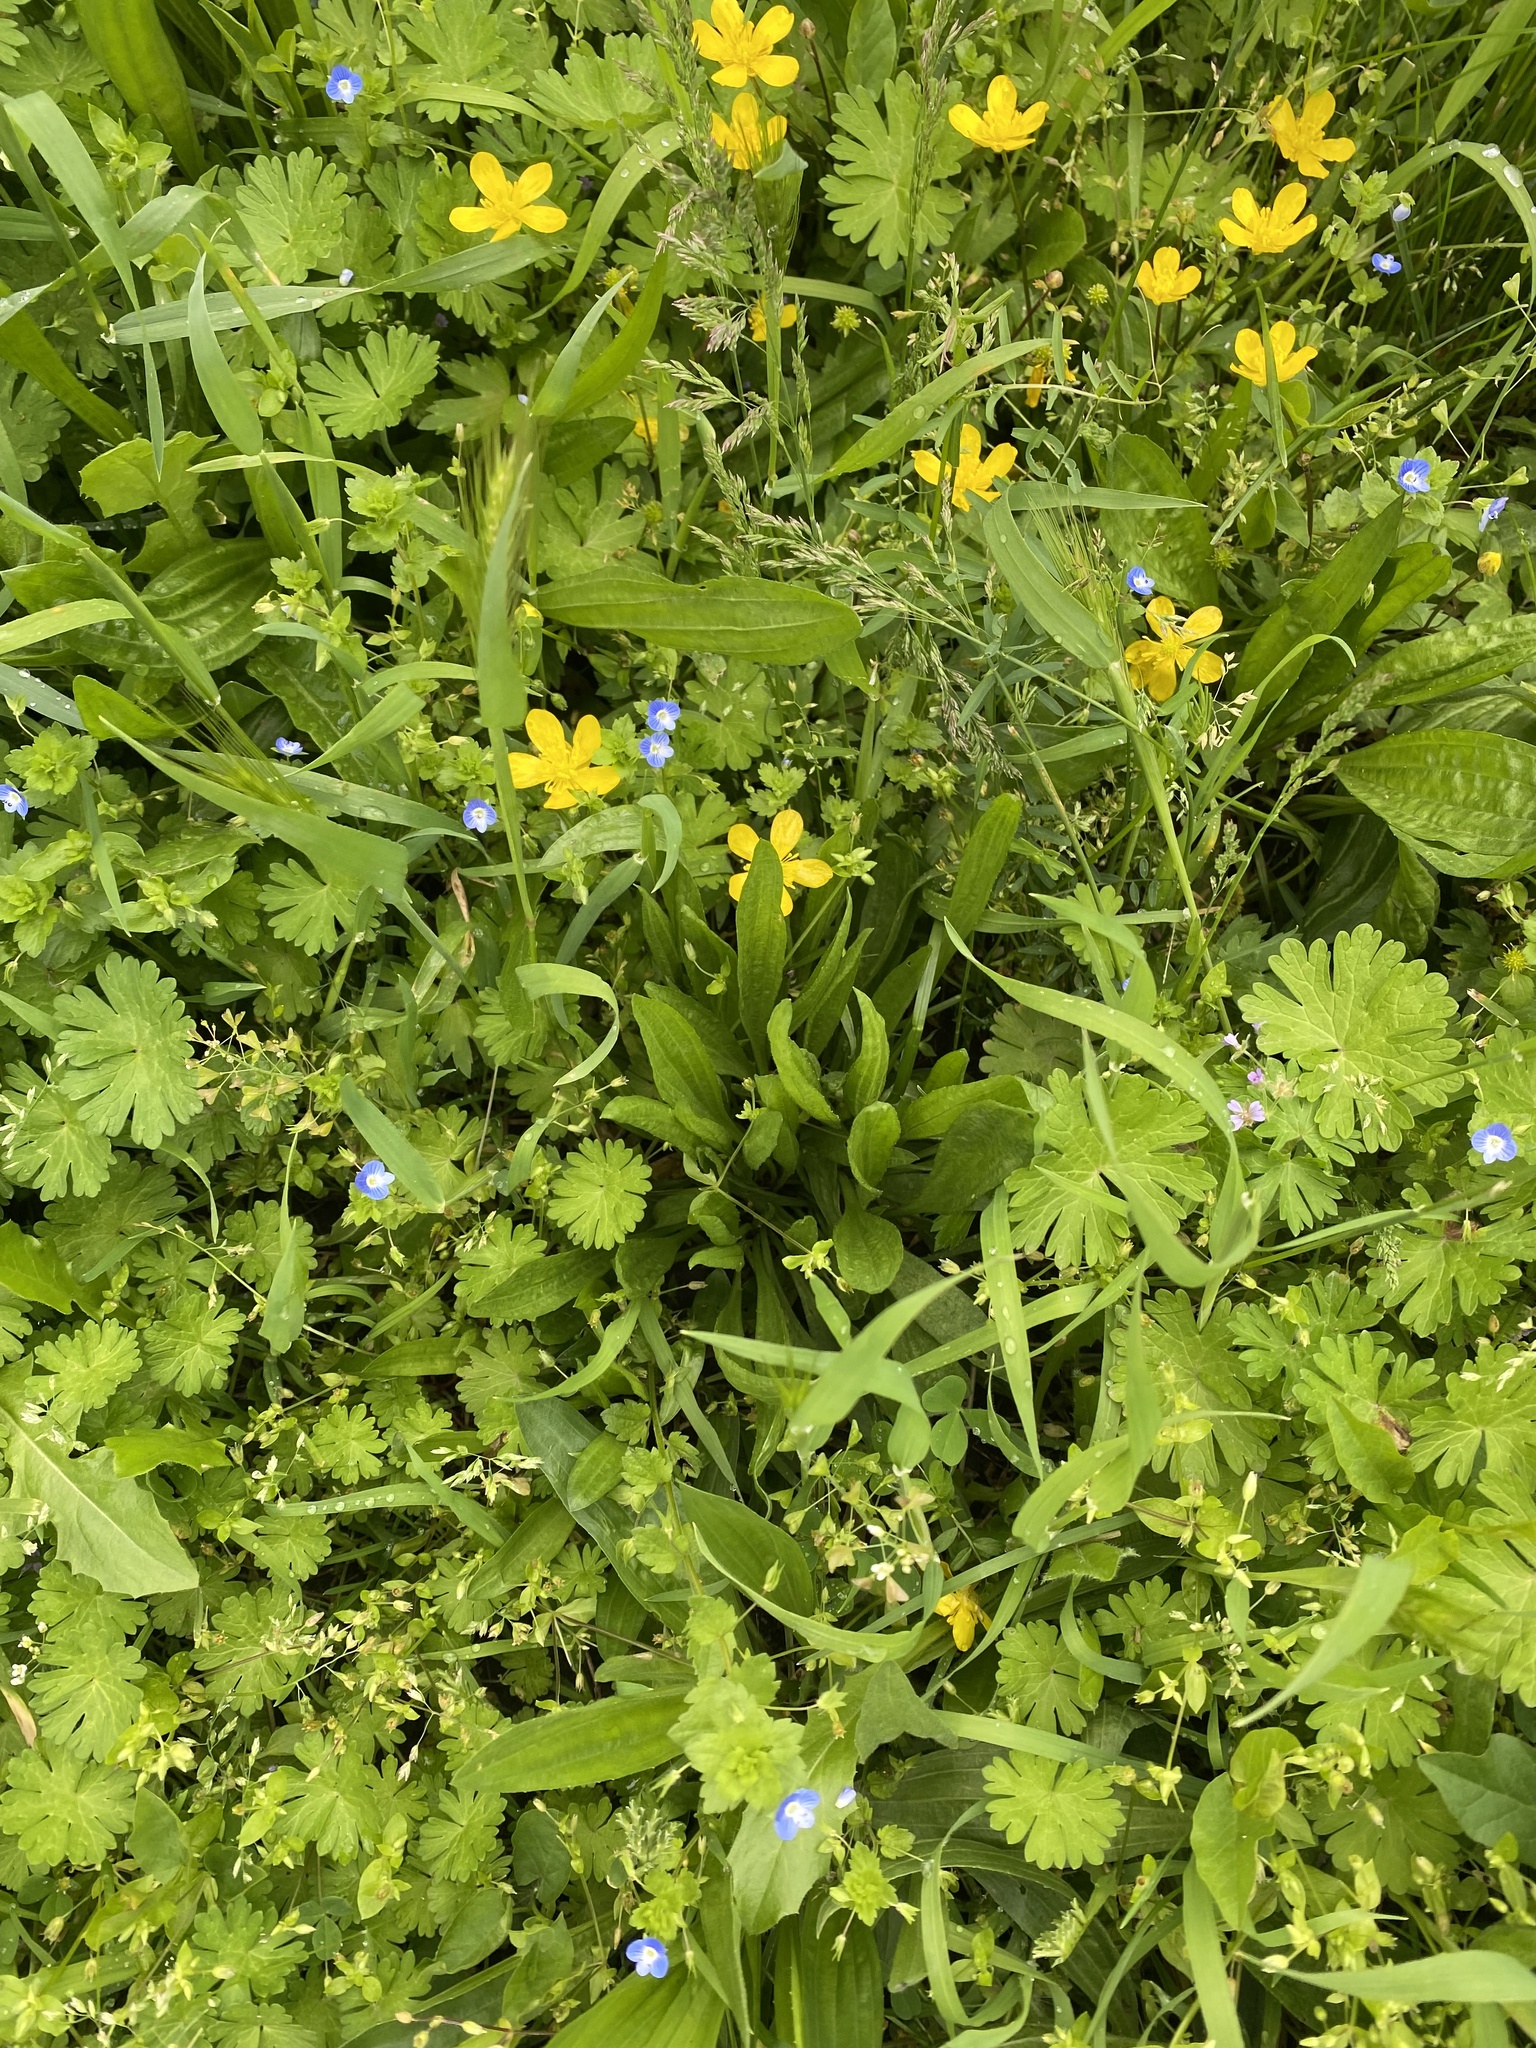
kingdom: Plantae
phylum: Tracheophyta
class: Magnoliopsida
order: Lamiales
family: Plantaginaceae
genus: Veronica
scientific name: Veronica persica
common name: Common field-speedwell
